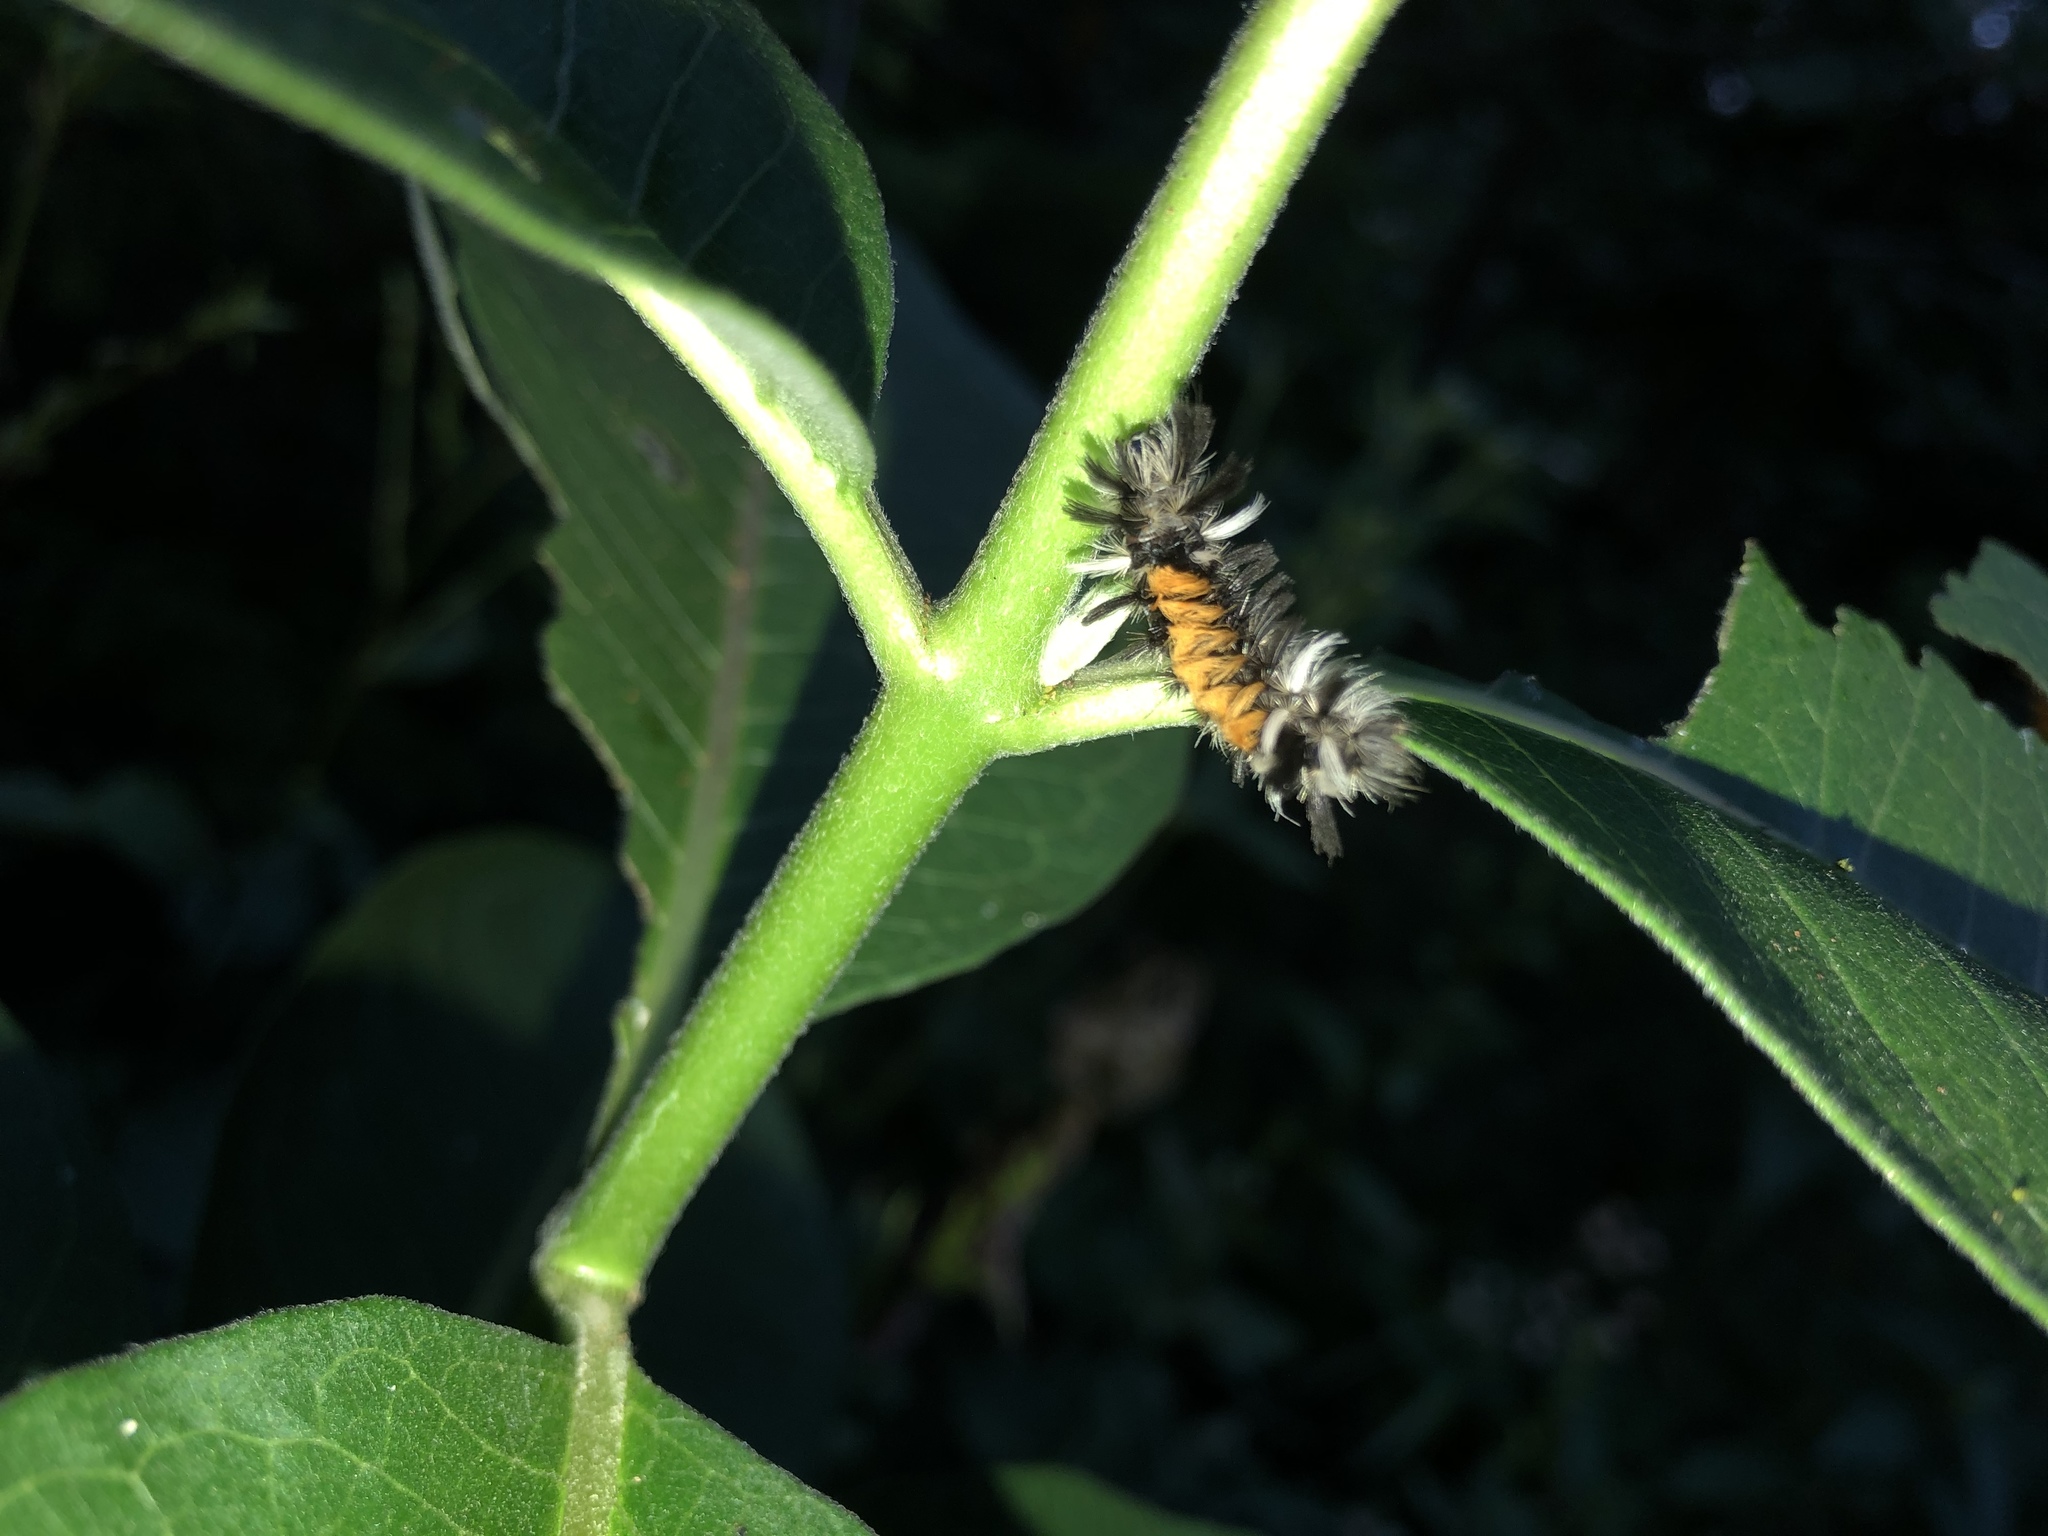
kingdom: Animalia
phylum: Arthropoda
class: Insecta
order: Lepidoptera
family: Erebidae
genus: Euchaetes
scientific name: Euchaetes egle
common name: Milkweed tussock moth
